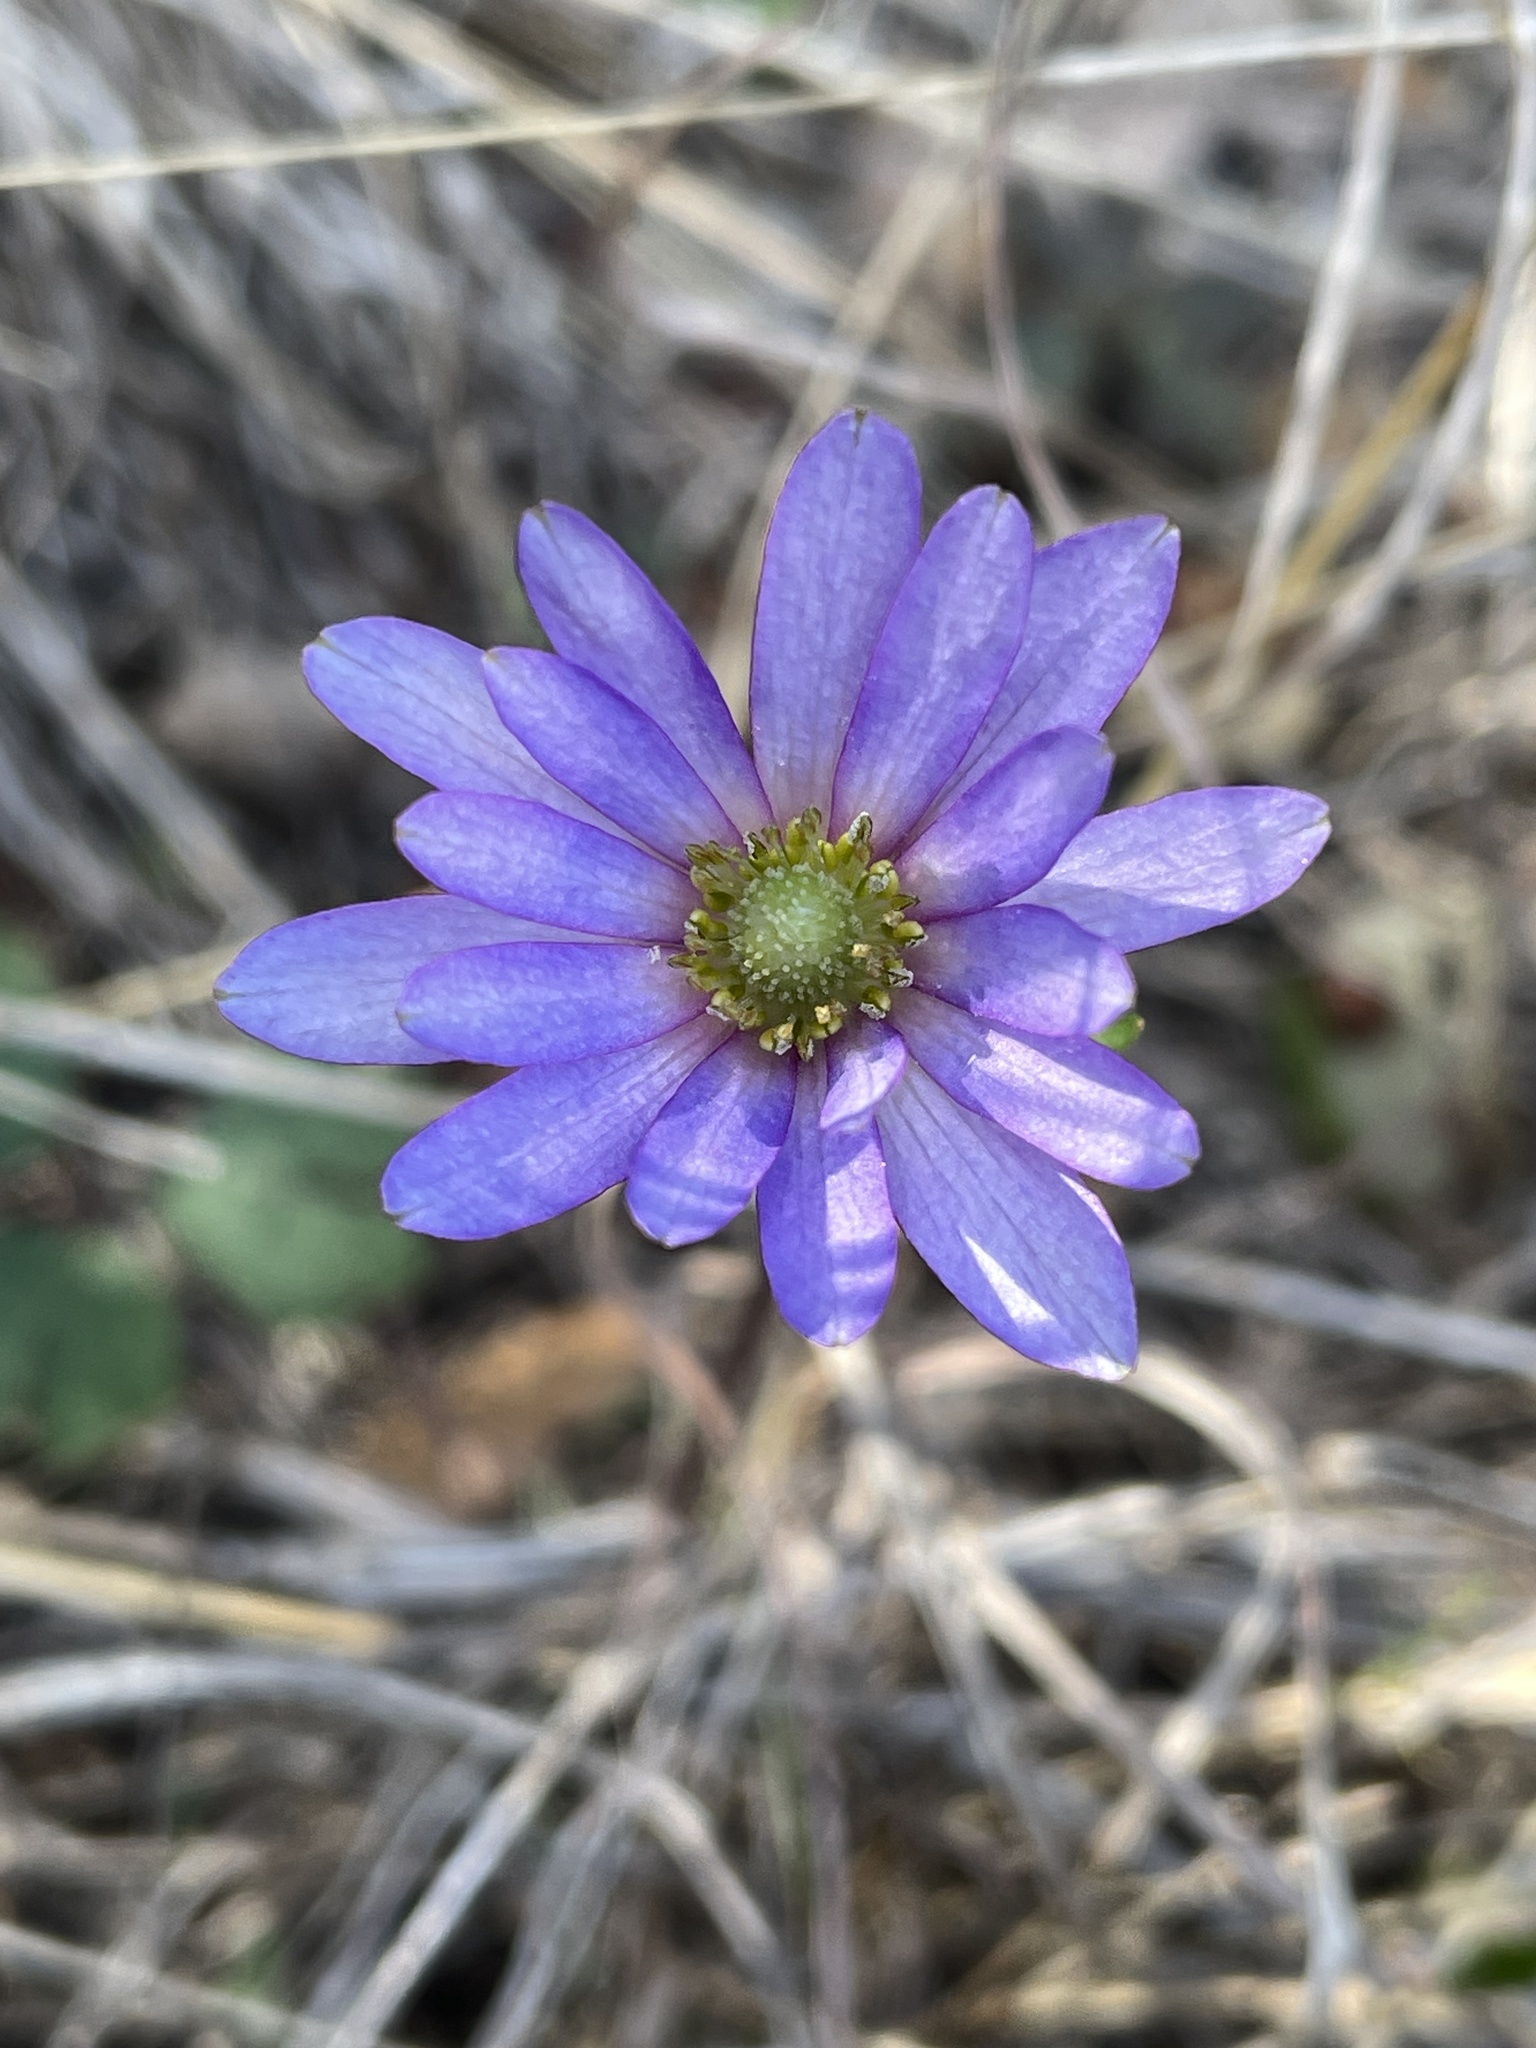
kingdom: Plantae
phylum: Tracheophyta
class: Magnoliopsida
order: Ranunculales
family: Ranunculaceae
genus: Anemone
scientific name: Anemone berlandieri
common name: Ten-petal anemone
